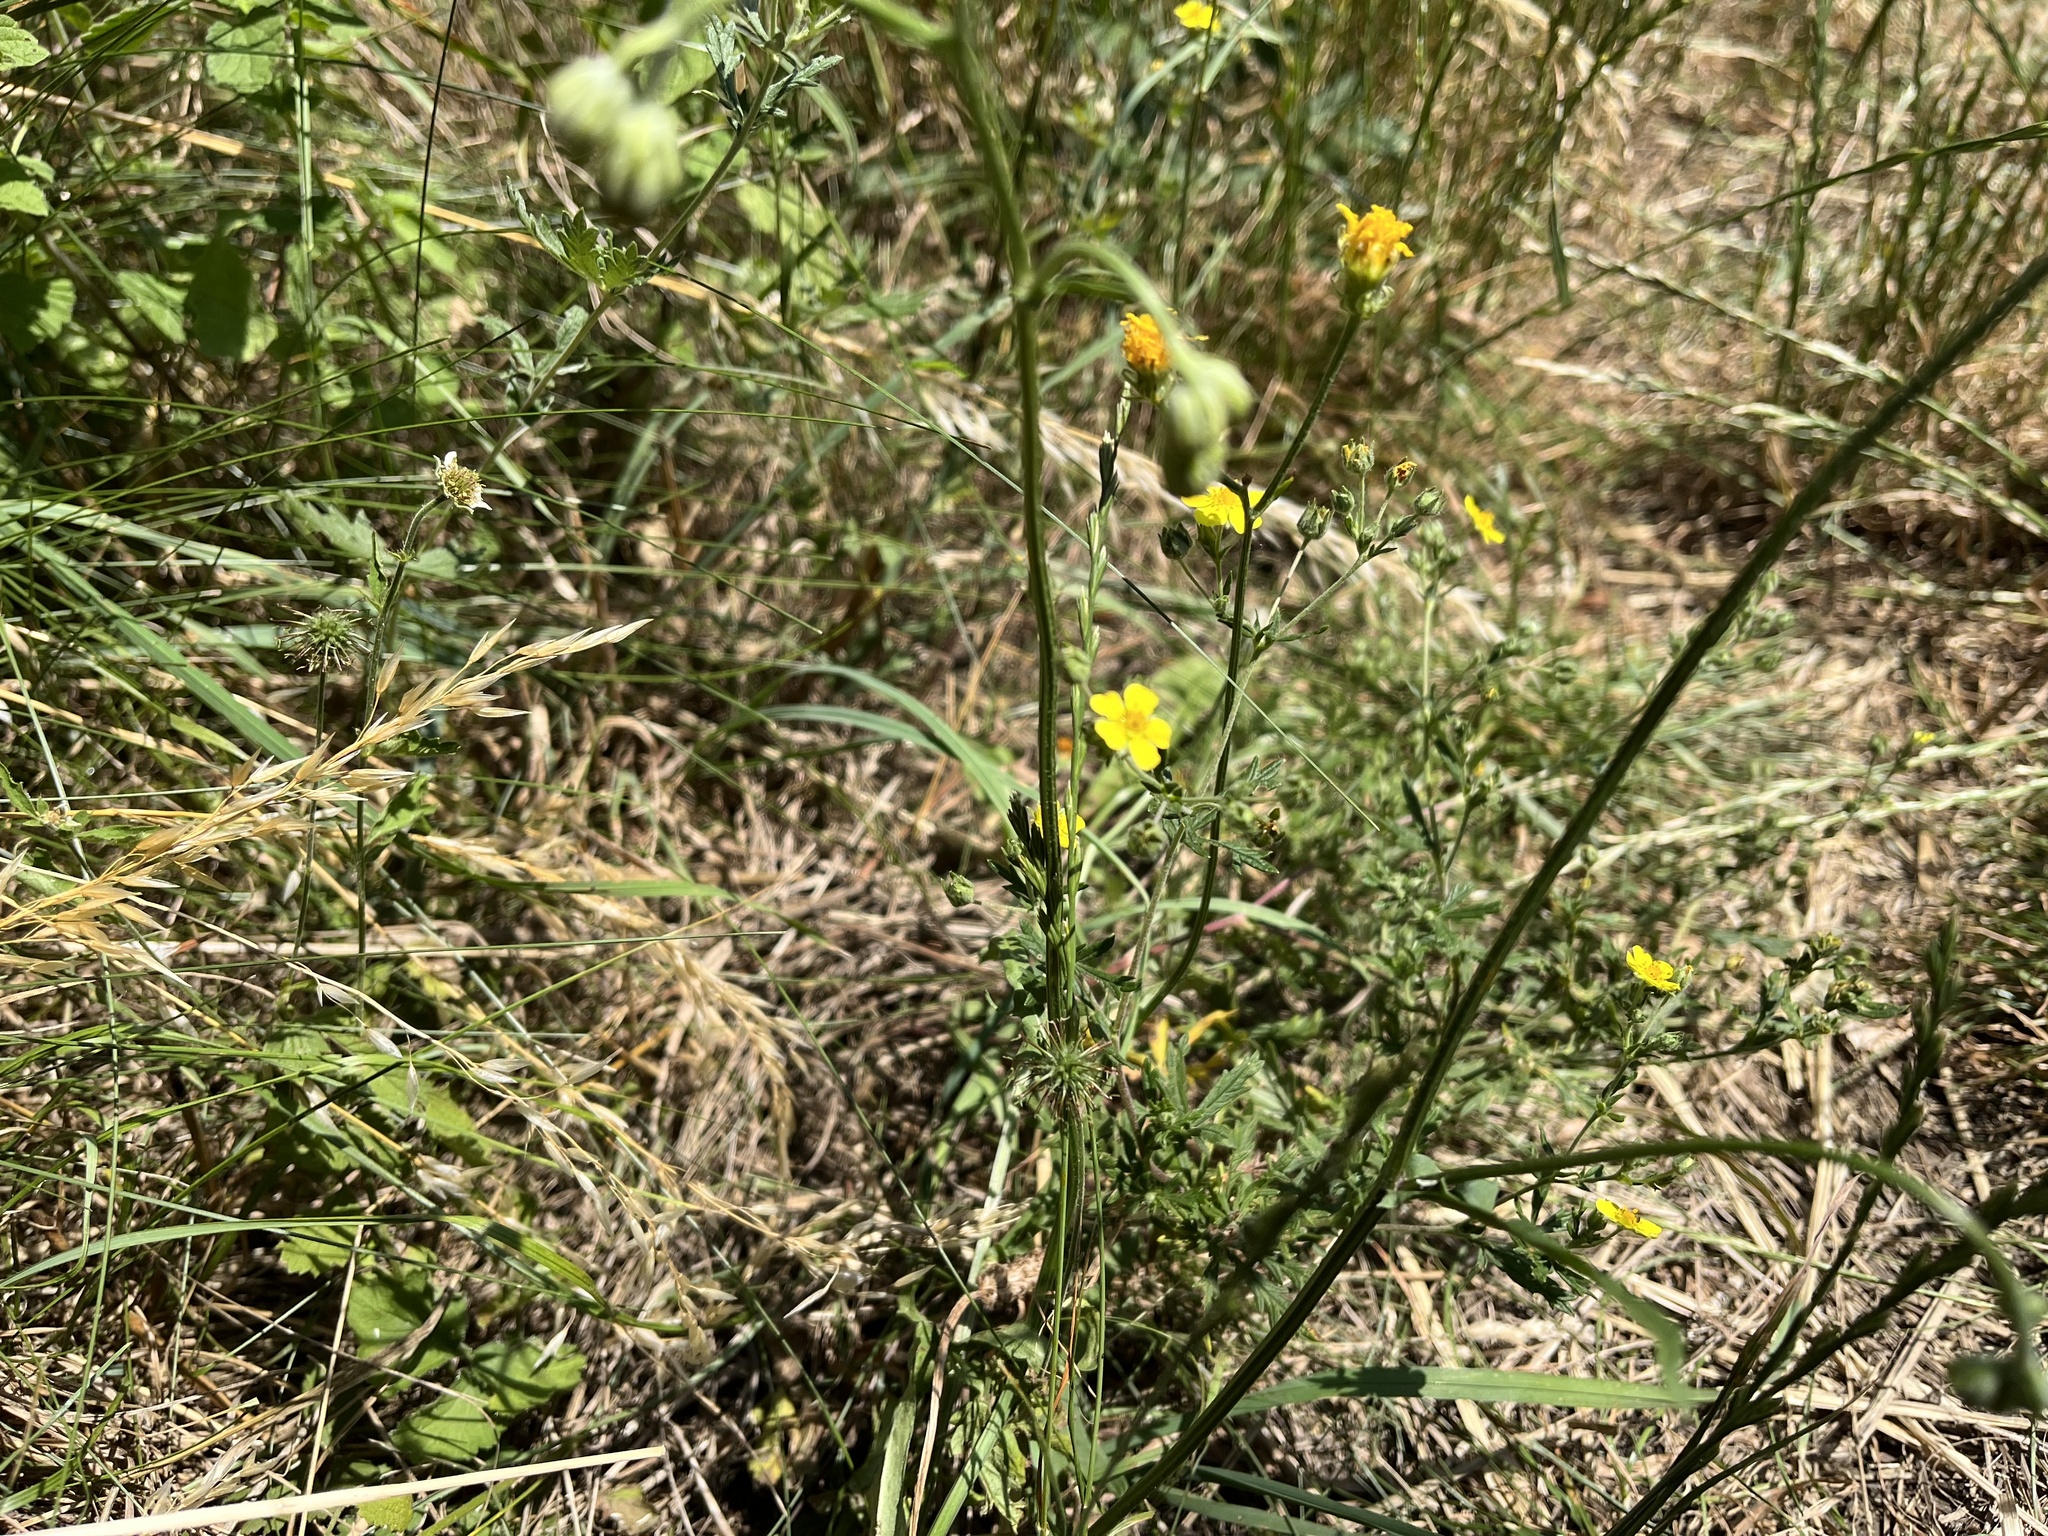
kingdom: Plantae
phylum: Tracheophyta
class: Magnoliopsida
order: Rosales
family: Rosaceae
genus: Potentilla
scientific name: Potentilla argentea
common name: Hoary cinquefoil
